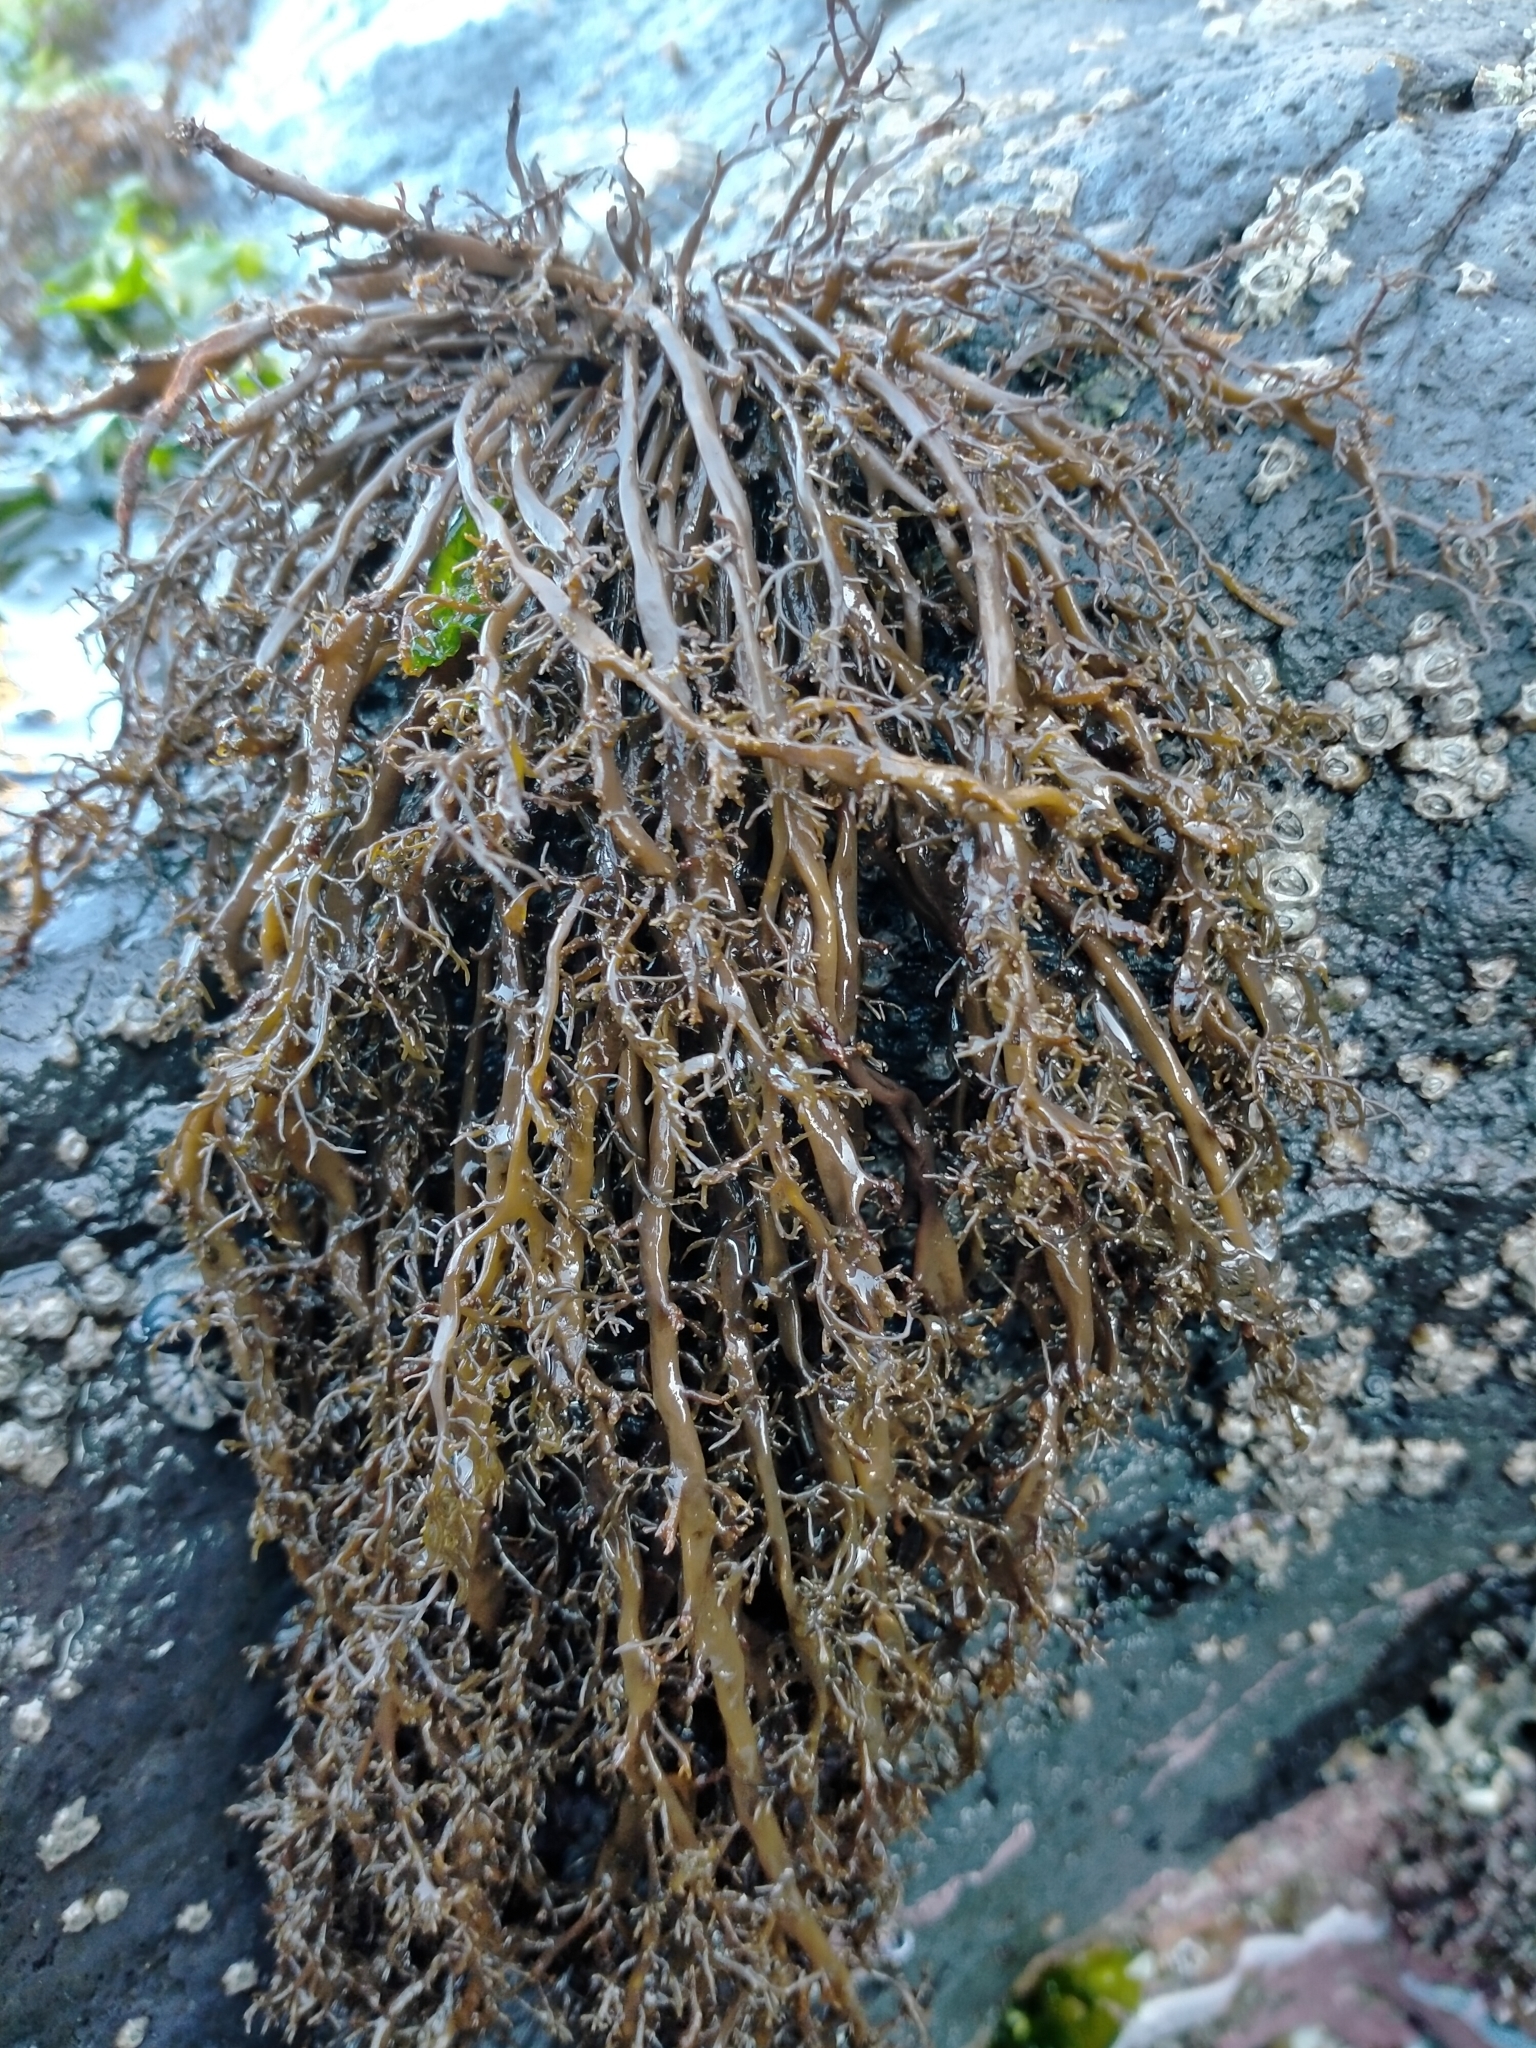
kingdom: Chromista
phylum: Ochrophyta
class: Phaeophyceae
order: Scytothamnales
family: Scytothamnaceae
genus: Scytothamnus
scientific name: Scytothamnus australis
